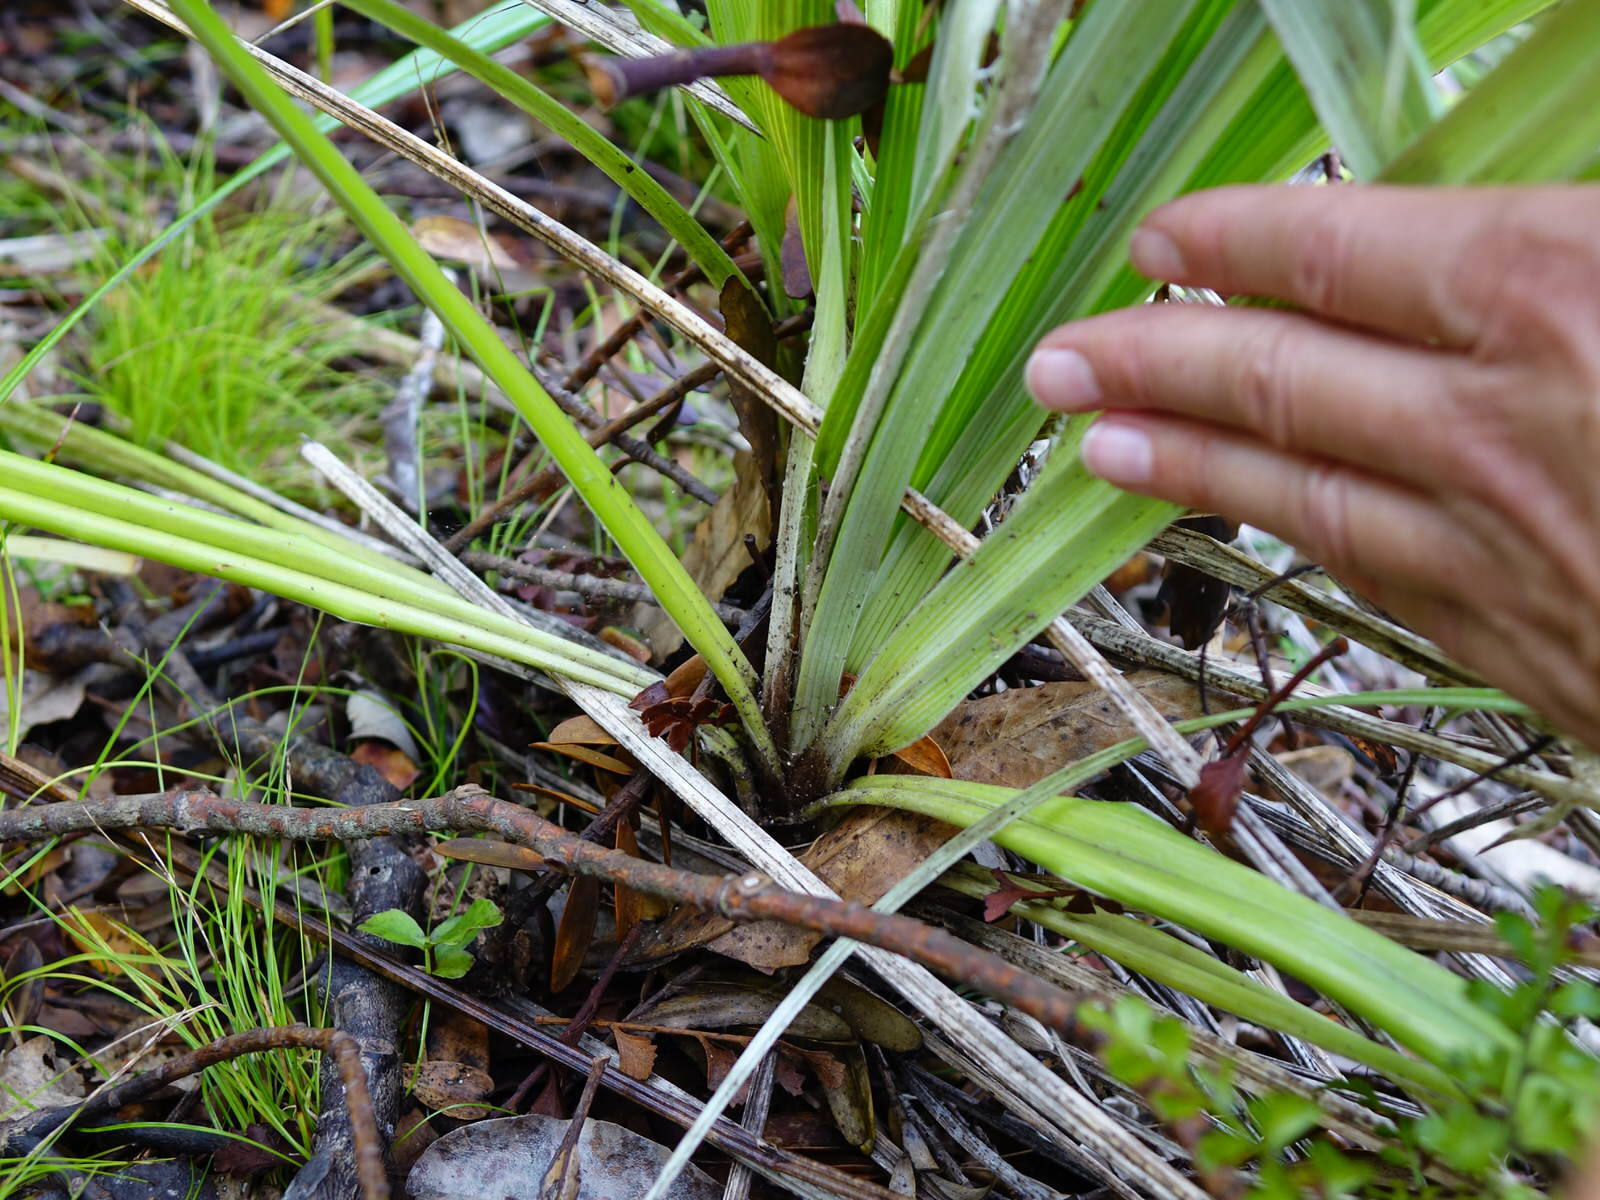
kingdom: Plantae
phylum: Tracheophyta
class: Liliopsida
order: Asparagales
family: Asteliaceae
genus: Astelia
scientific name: Astelia banksii
